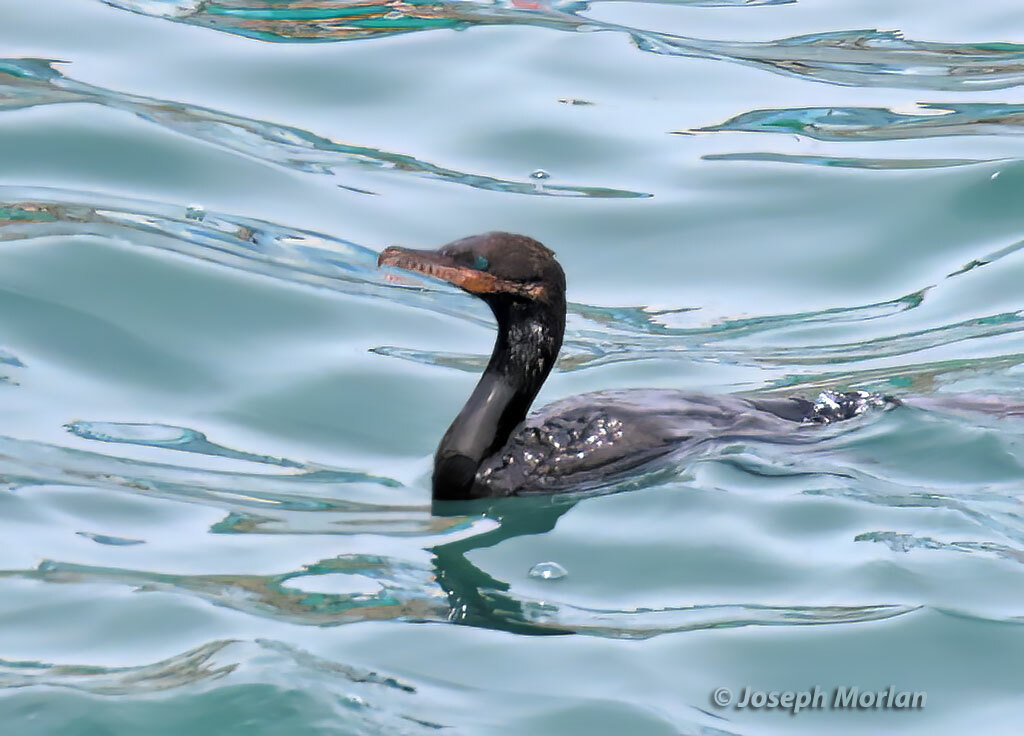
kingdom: Animalia
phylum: Chordata
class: Aves
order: Suliformes
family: Phalacrocoracidae
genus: Phalacrocorax
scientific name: Phalacrocorax brasilianus
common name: Neotropic cormorant
